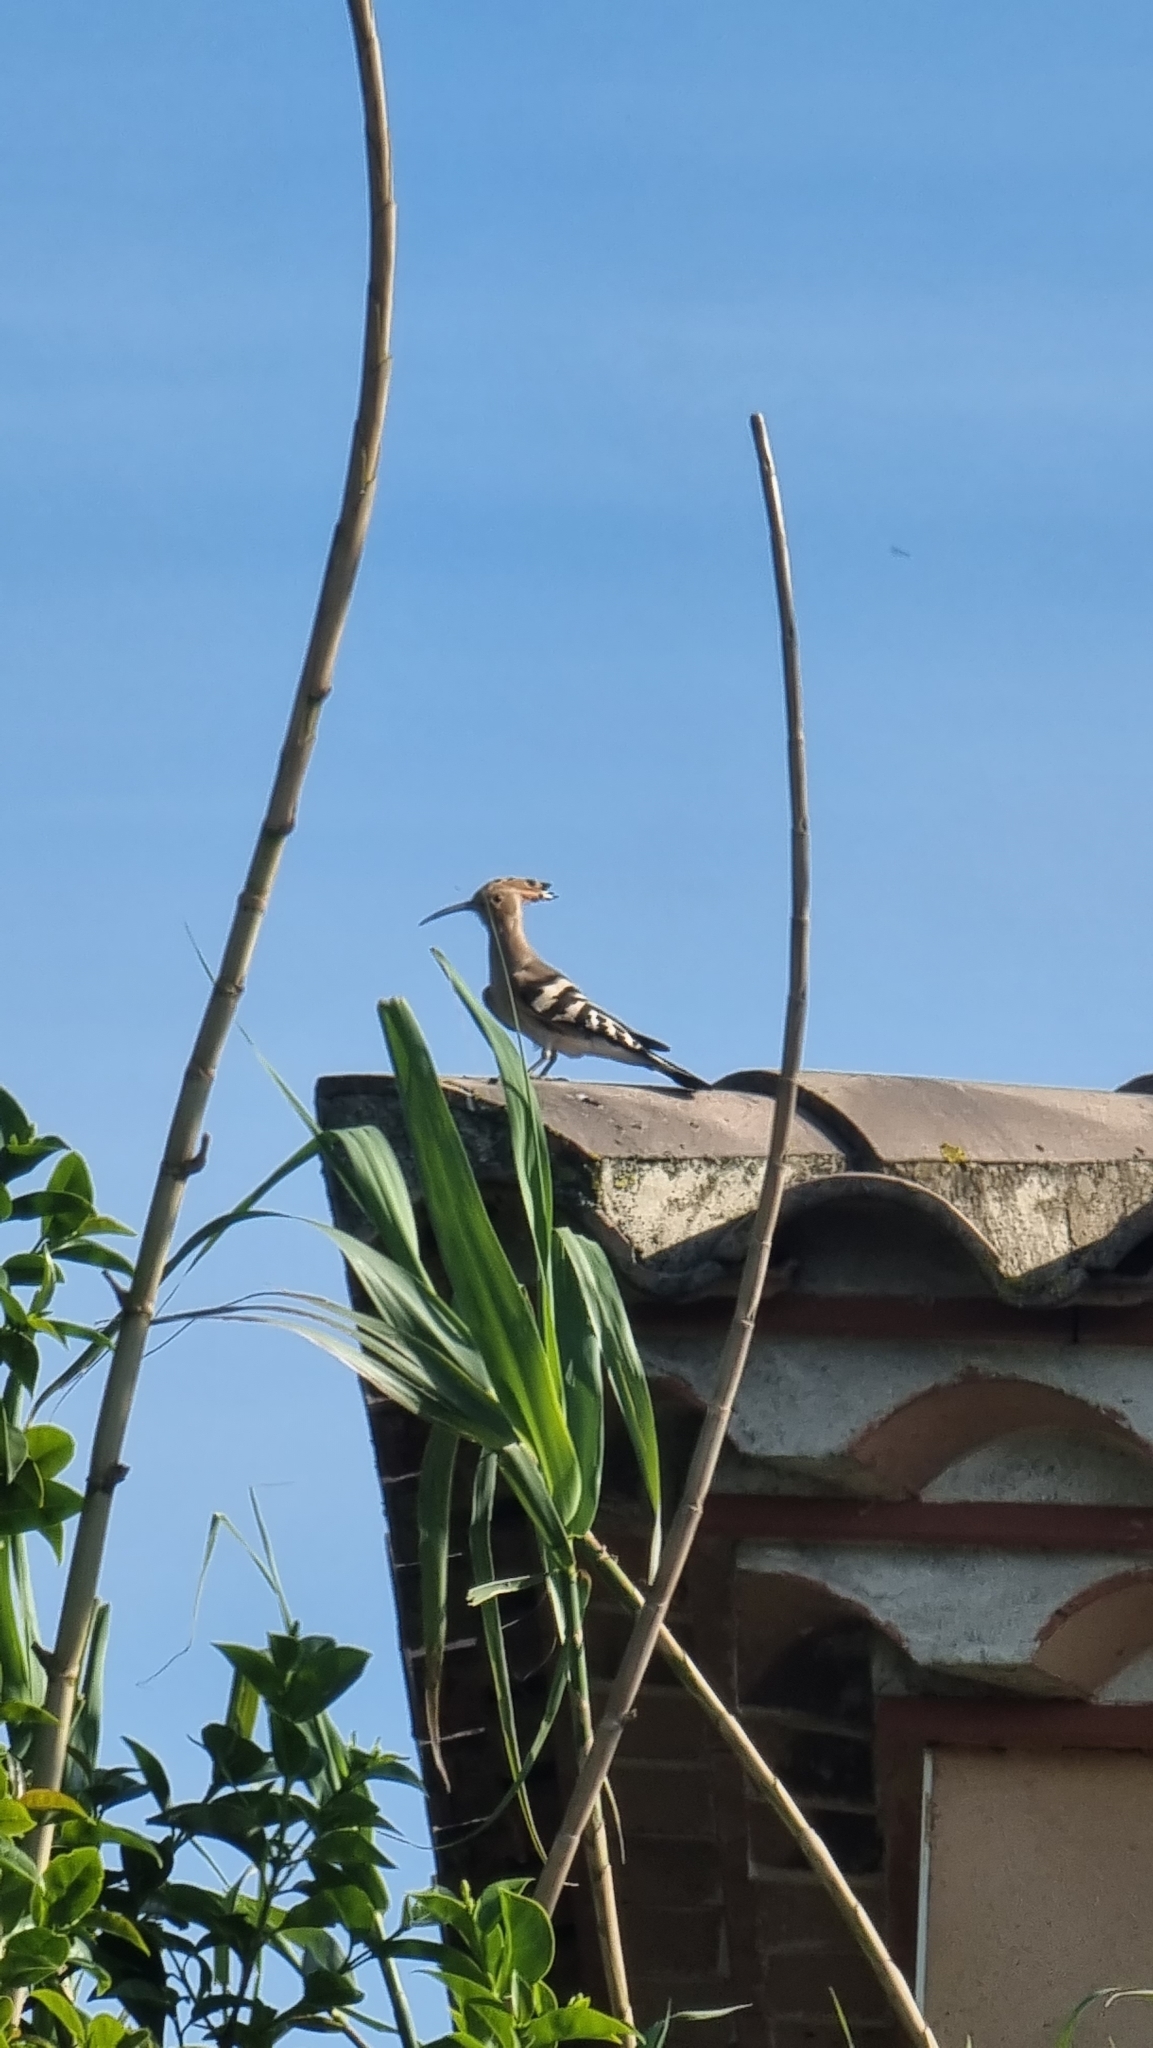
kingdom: Animalia
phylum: Chordata
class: Aves
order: Bucerotiformes
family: Upupidae
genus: Upupa
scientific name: Upupa epops
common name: Eurasian hoopoe
